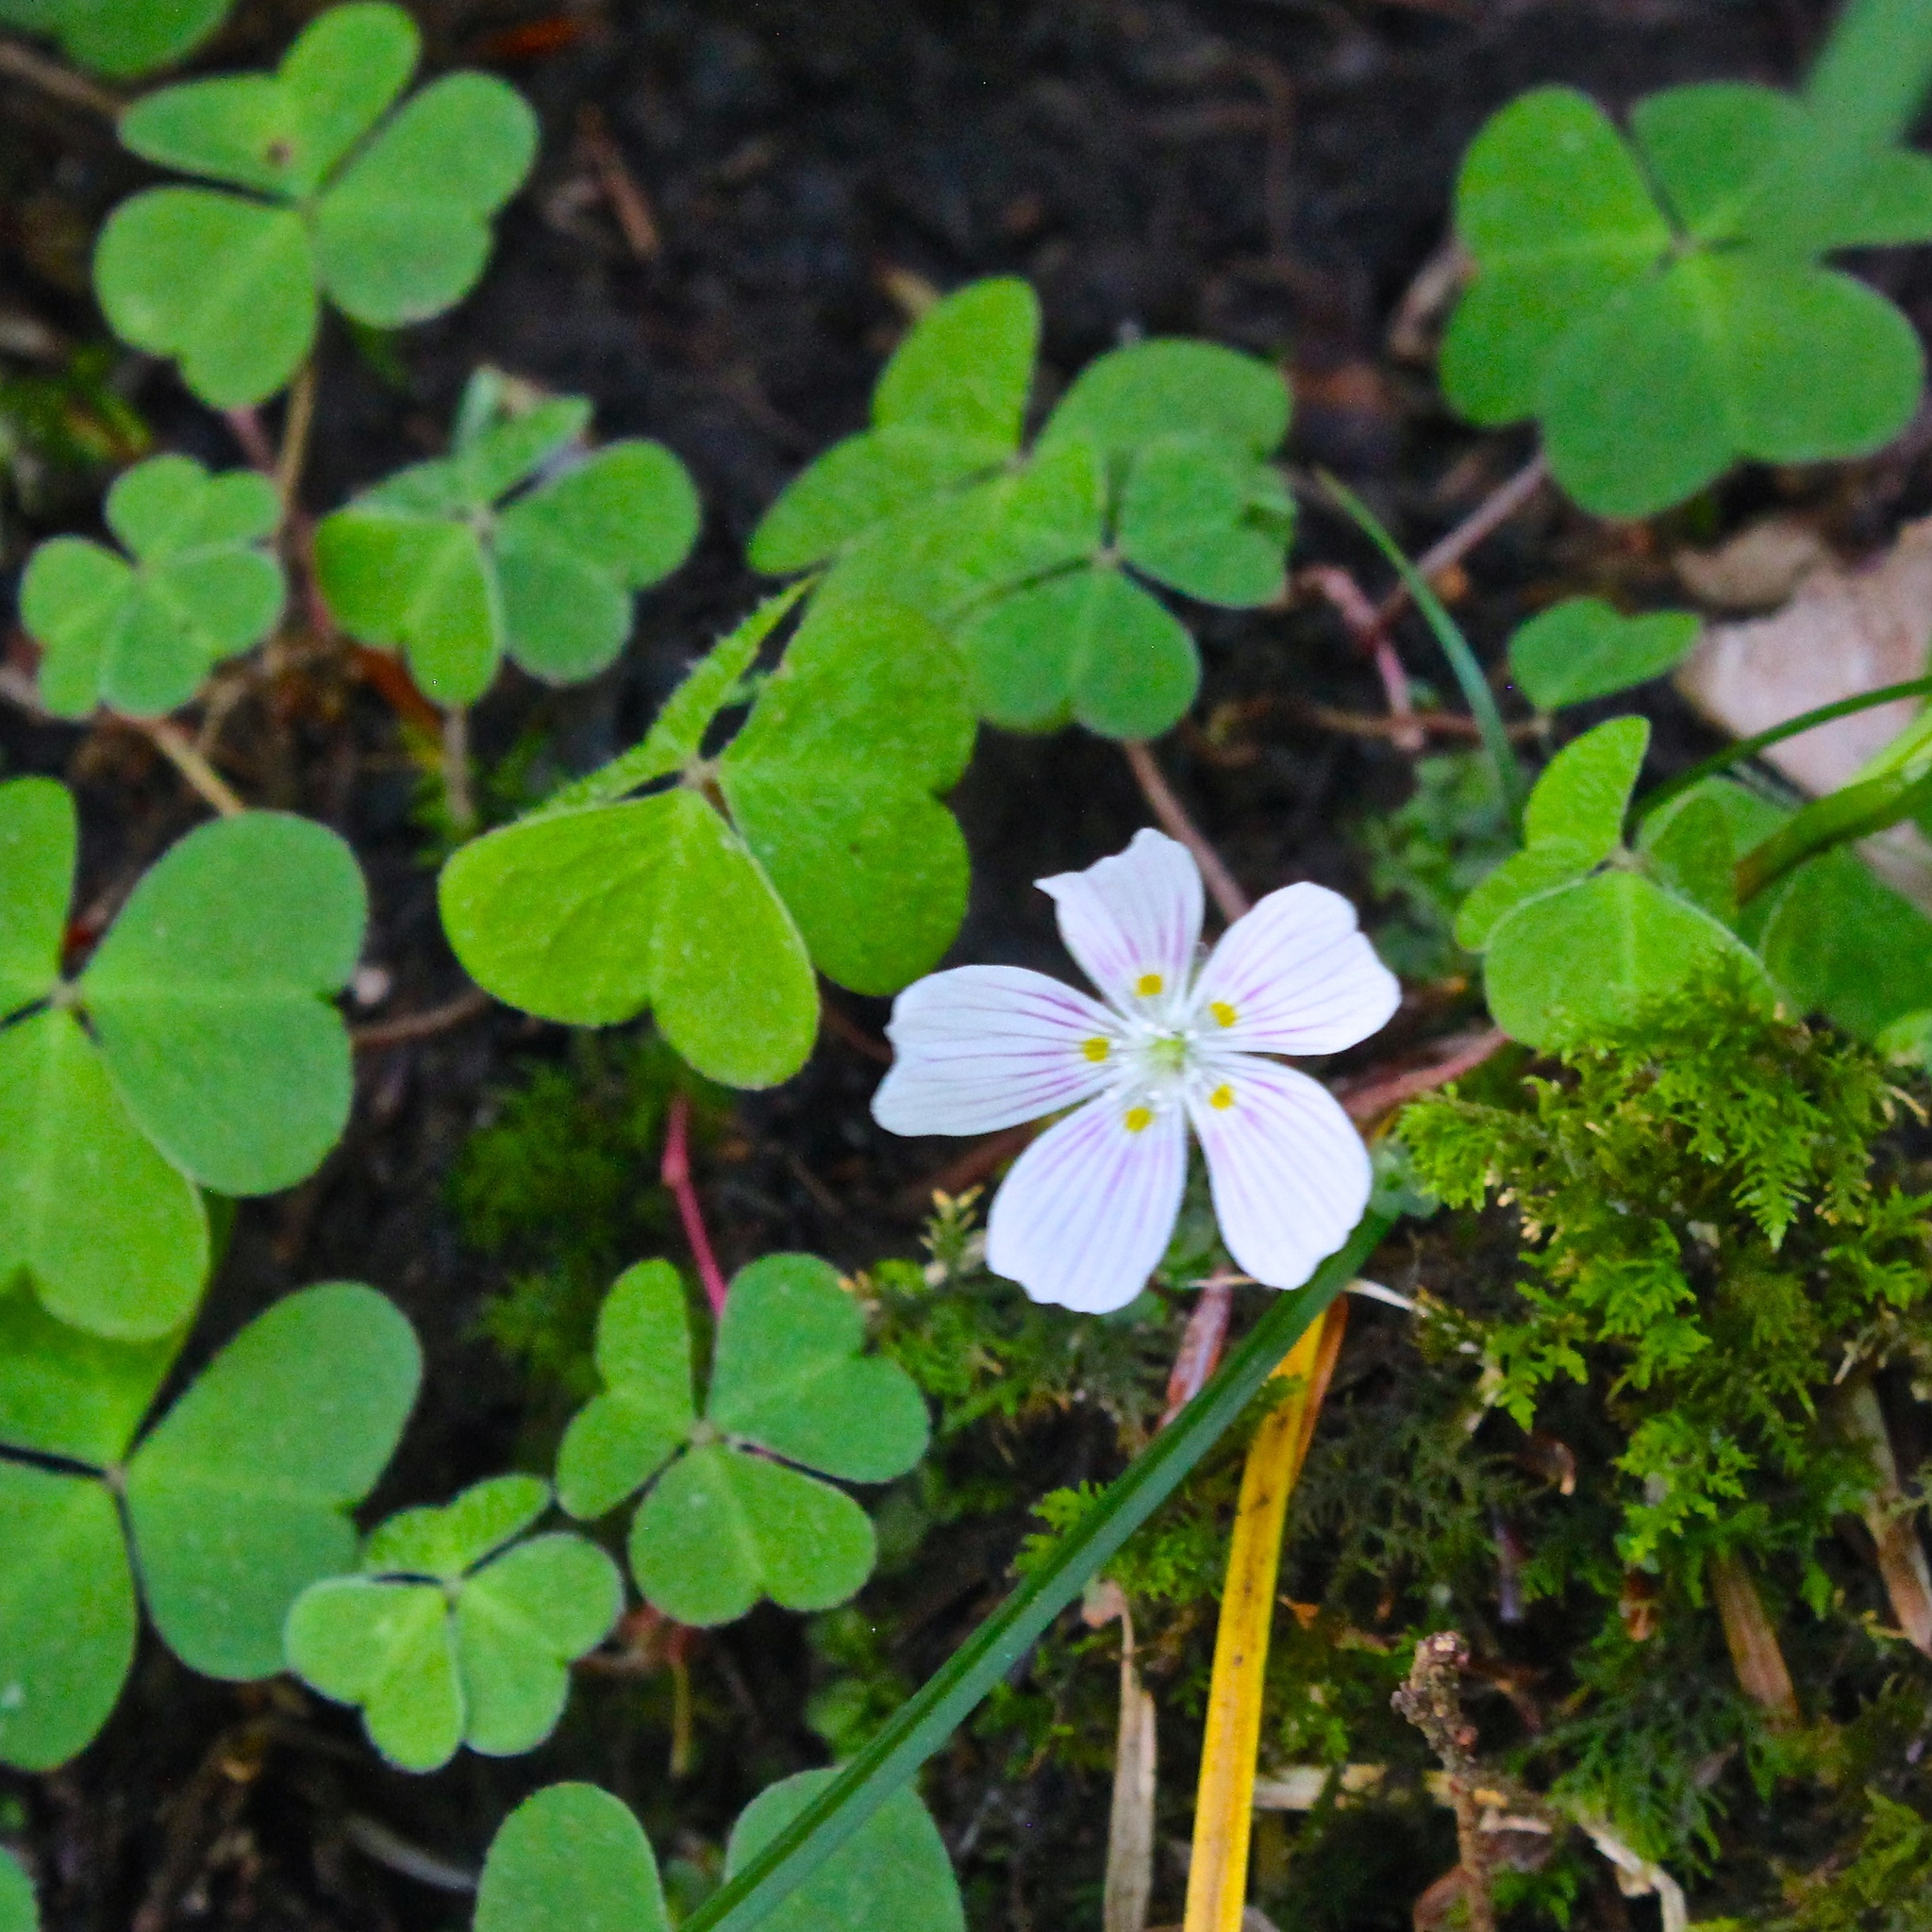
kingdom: Plantae
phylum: Tracheophyta
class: Magnoliopsida
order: Oxalidales
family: Oxalidaceae
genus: Oxalis
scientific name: Oxalis montana
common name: American wood-sorrel
